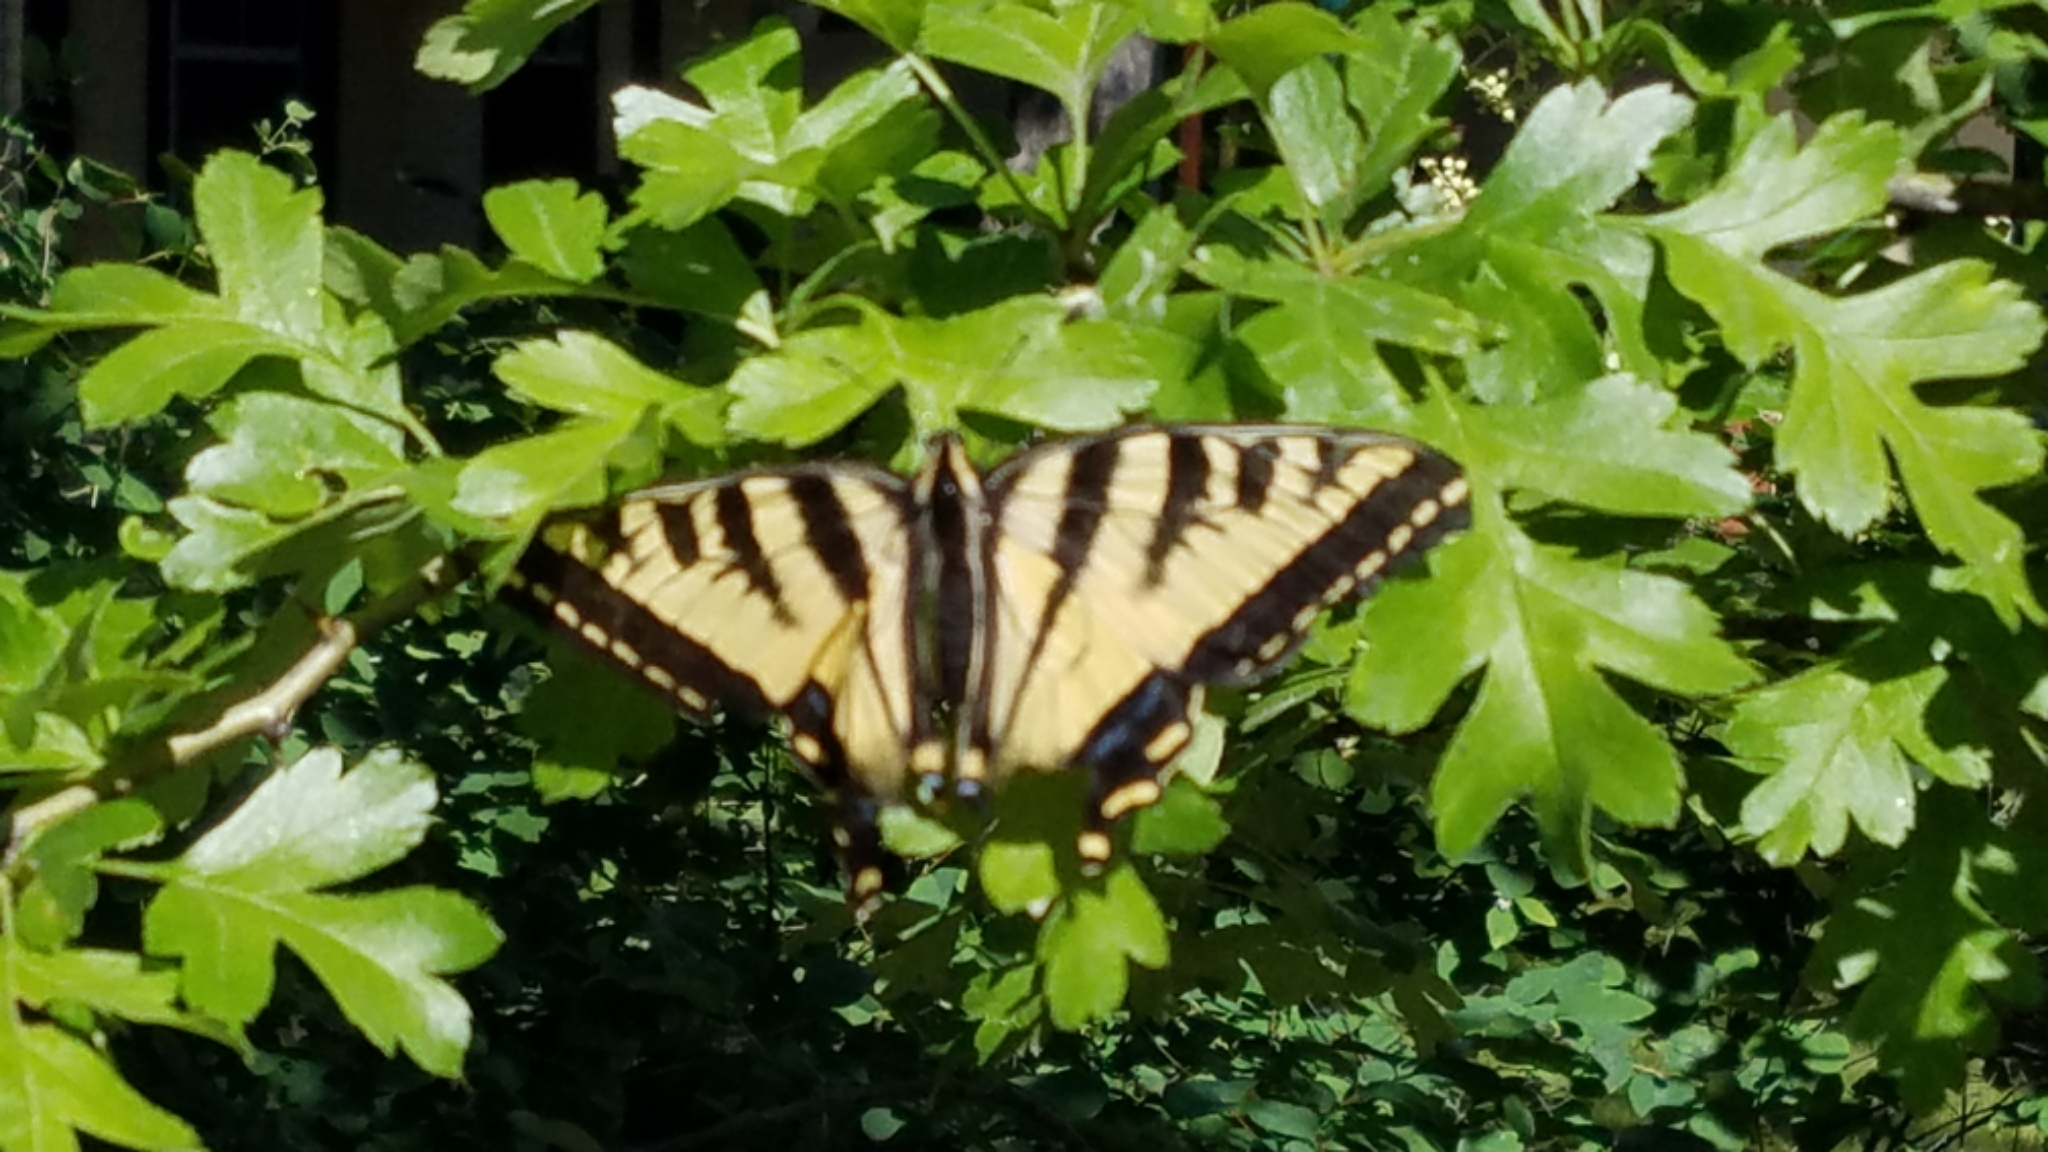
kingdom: Animalia
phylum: Arthropoda
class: Insecta
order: Lepidoptera
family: Papilionidae
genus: Papilio
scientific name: Papilio rutulus
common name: Western tiger swallowtail
